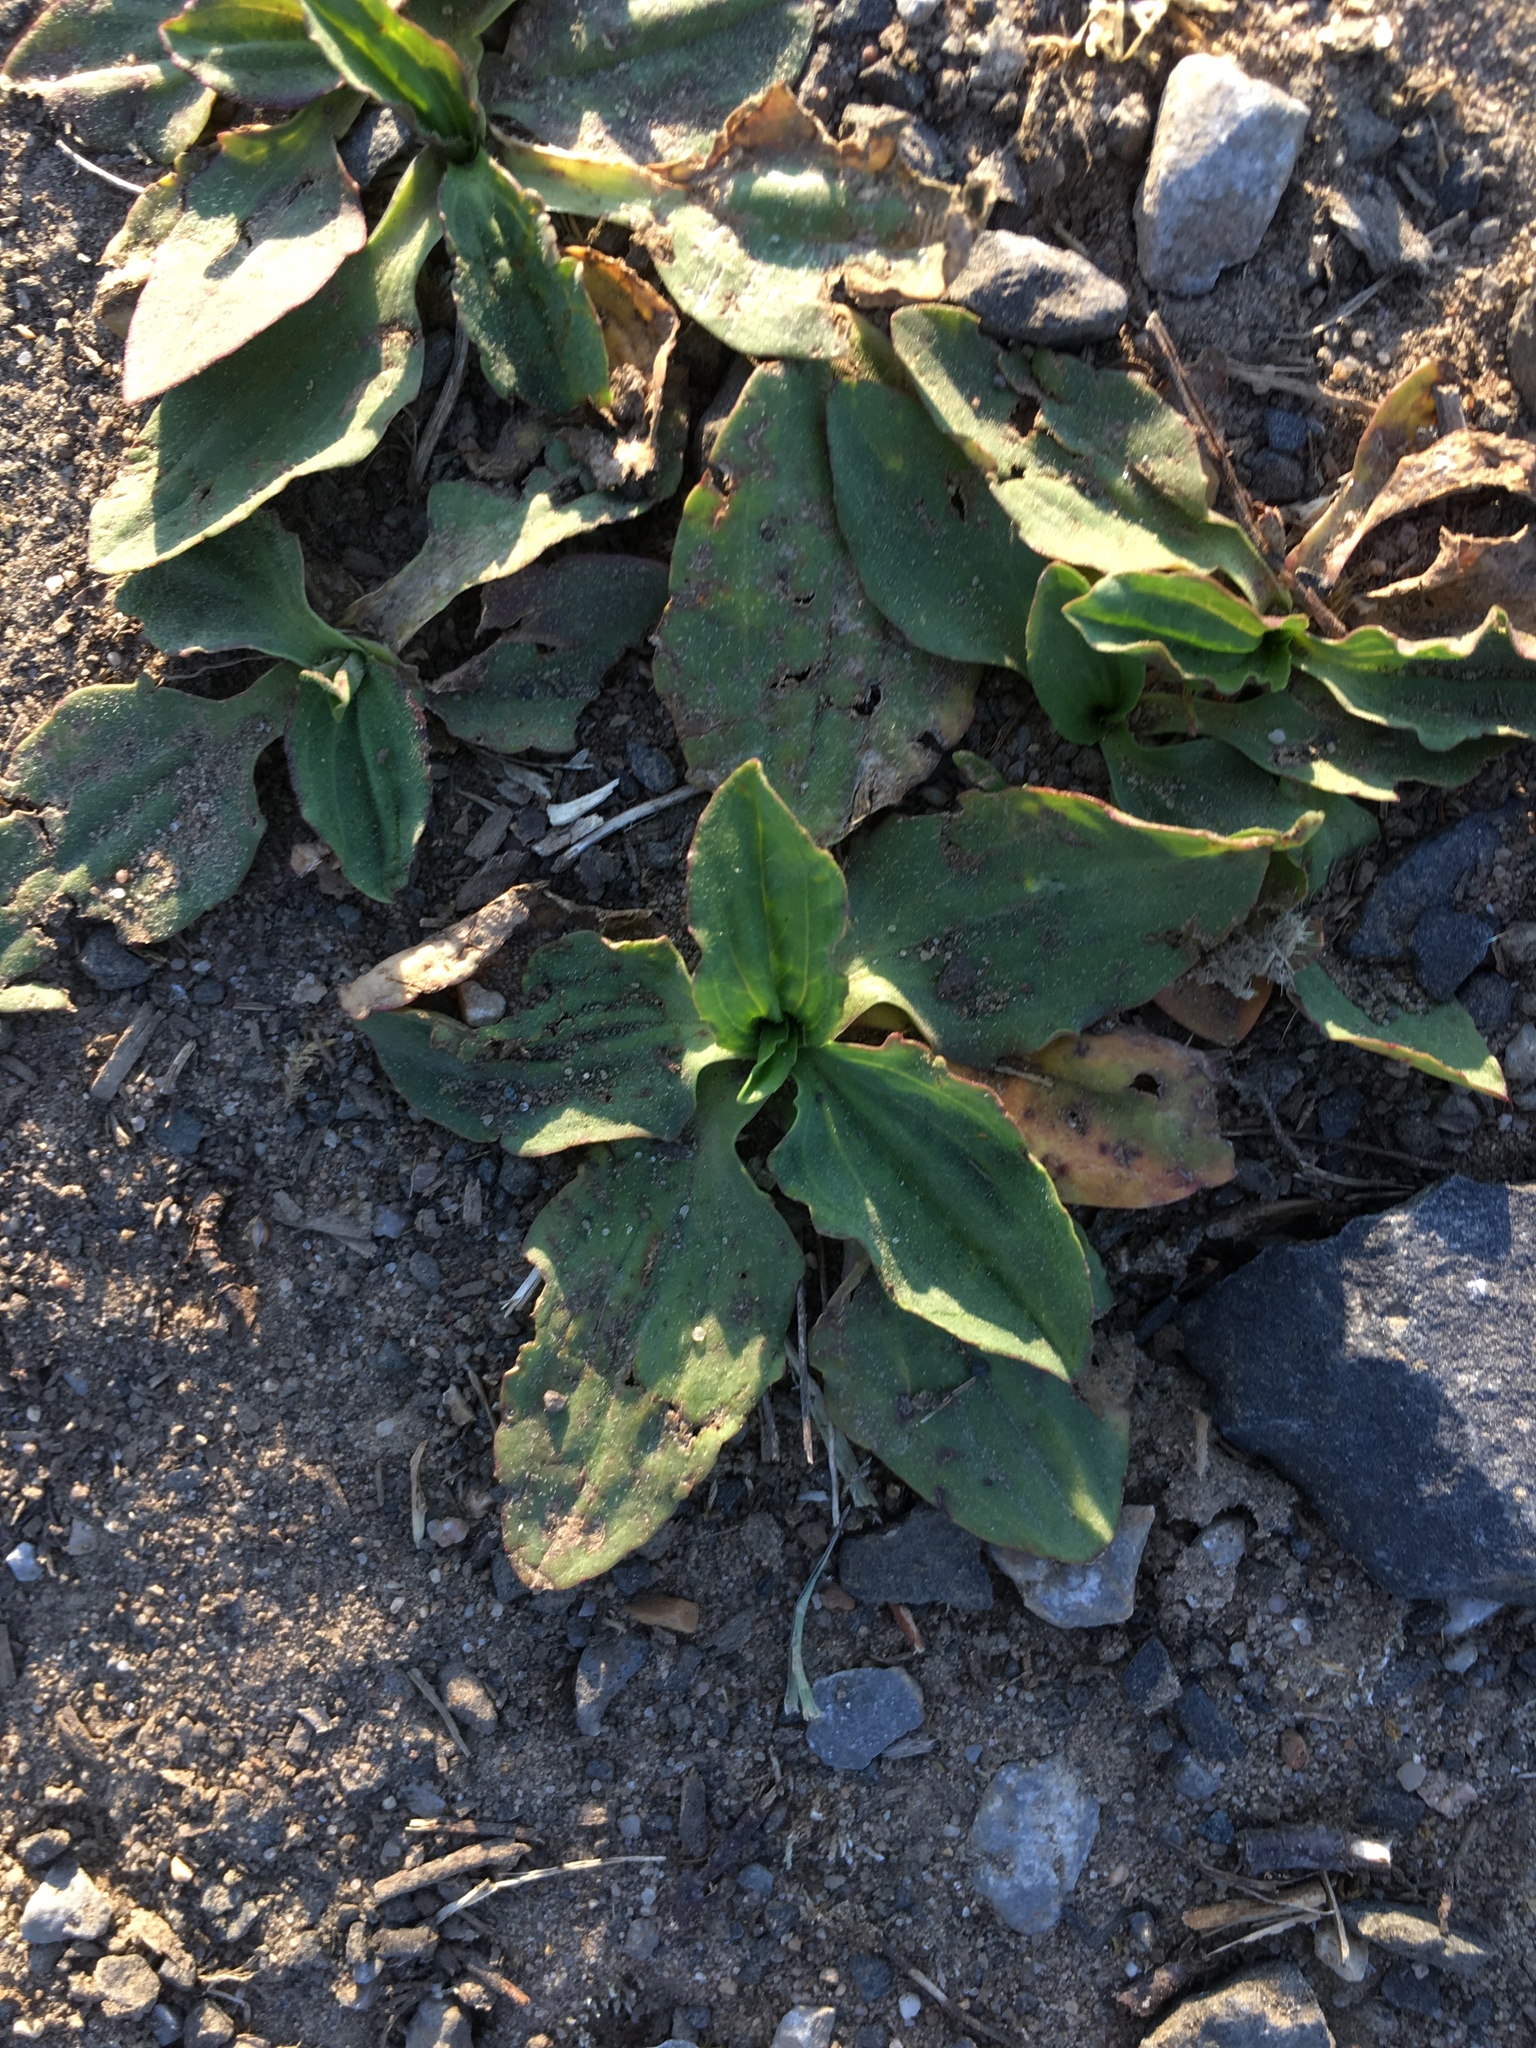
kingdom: Plantae
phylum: Tracheophyta
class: Magnoliopsida
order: Lamiales
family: Plantaginaceae
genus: Plantago
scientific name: Plantago major
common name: Common plantain
